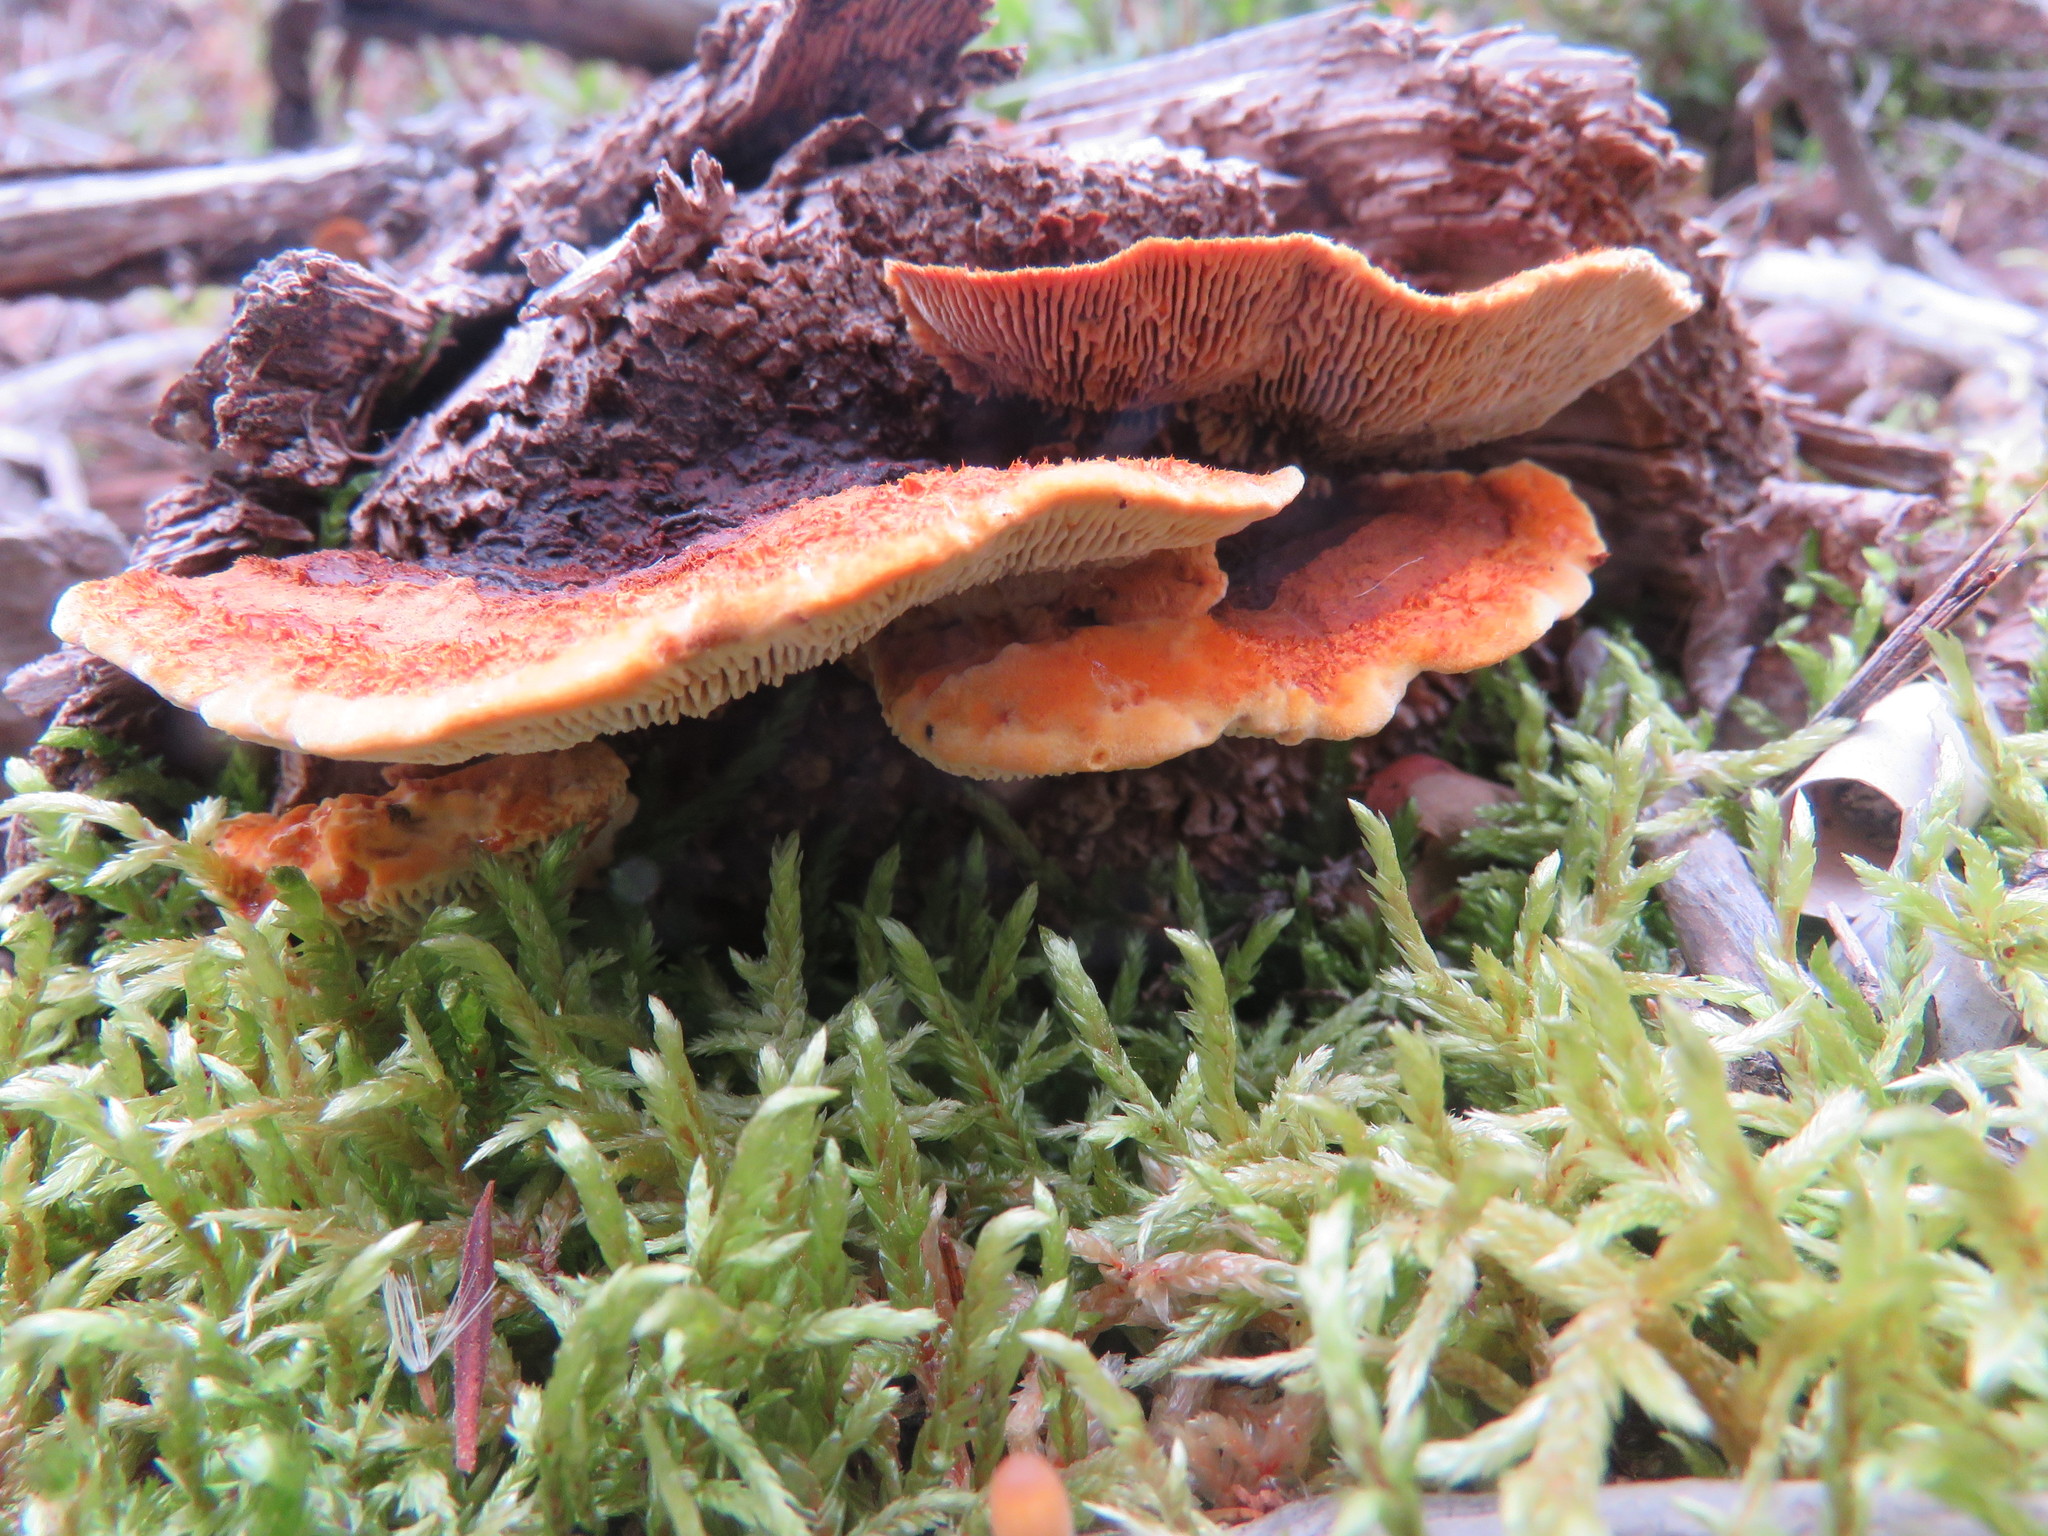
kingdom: Fungi
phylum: Basidiomycota
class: Agaricomycetes
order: Gloeophyllales
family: Gloeophyllaceae
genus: Gloeophyllum
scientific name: Gloeophyllum sepiarium
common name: Conifer mazegill
